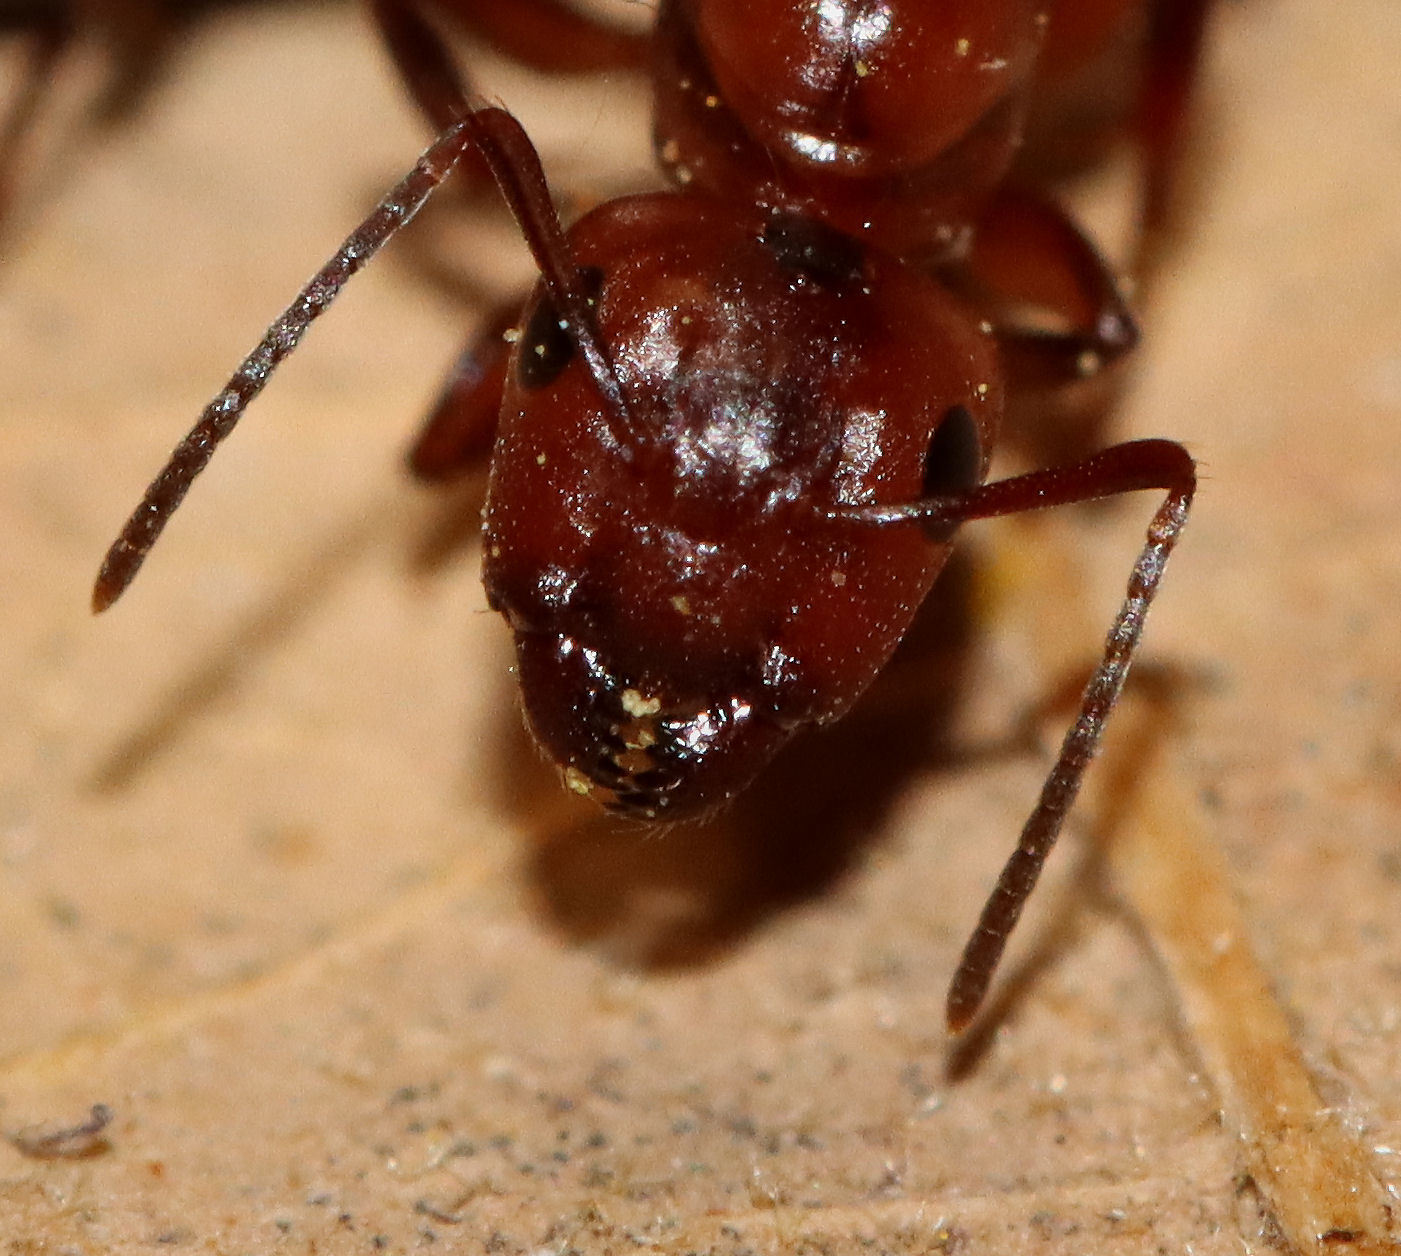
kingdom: Animalia
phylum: Arthropoda
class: Insecta
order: Hymenoptera
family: Formicidae
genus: Camponotus
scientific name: Camponotus decipiens
